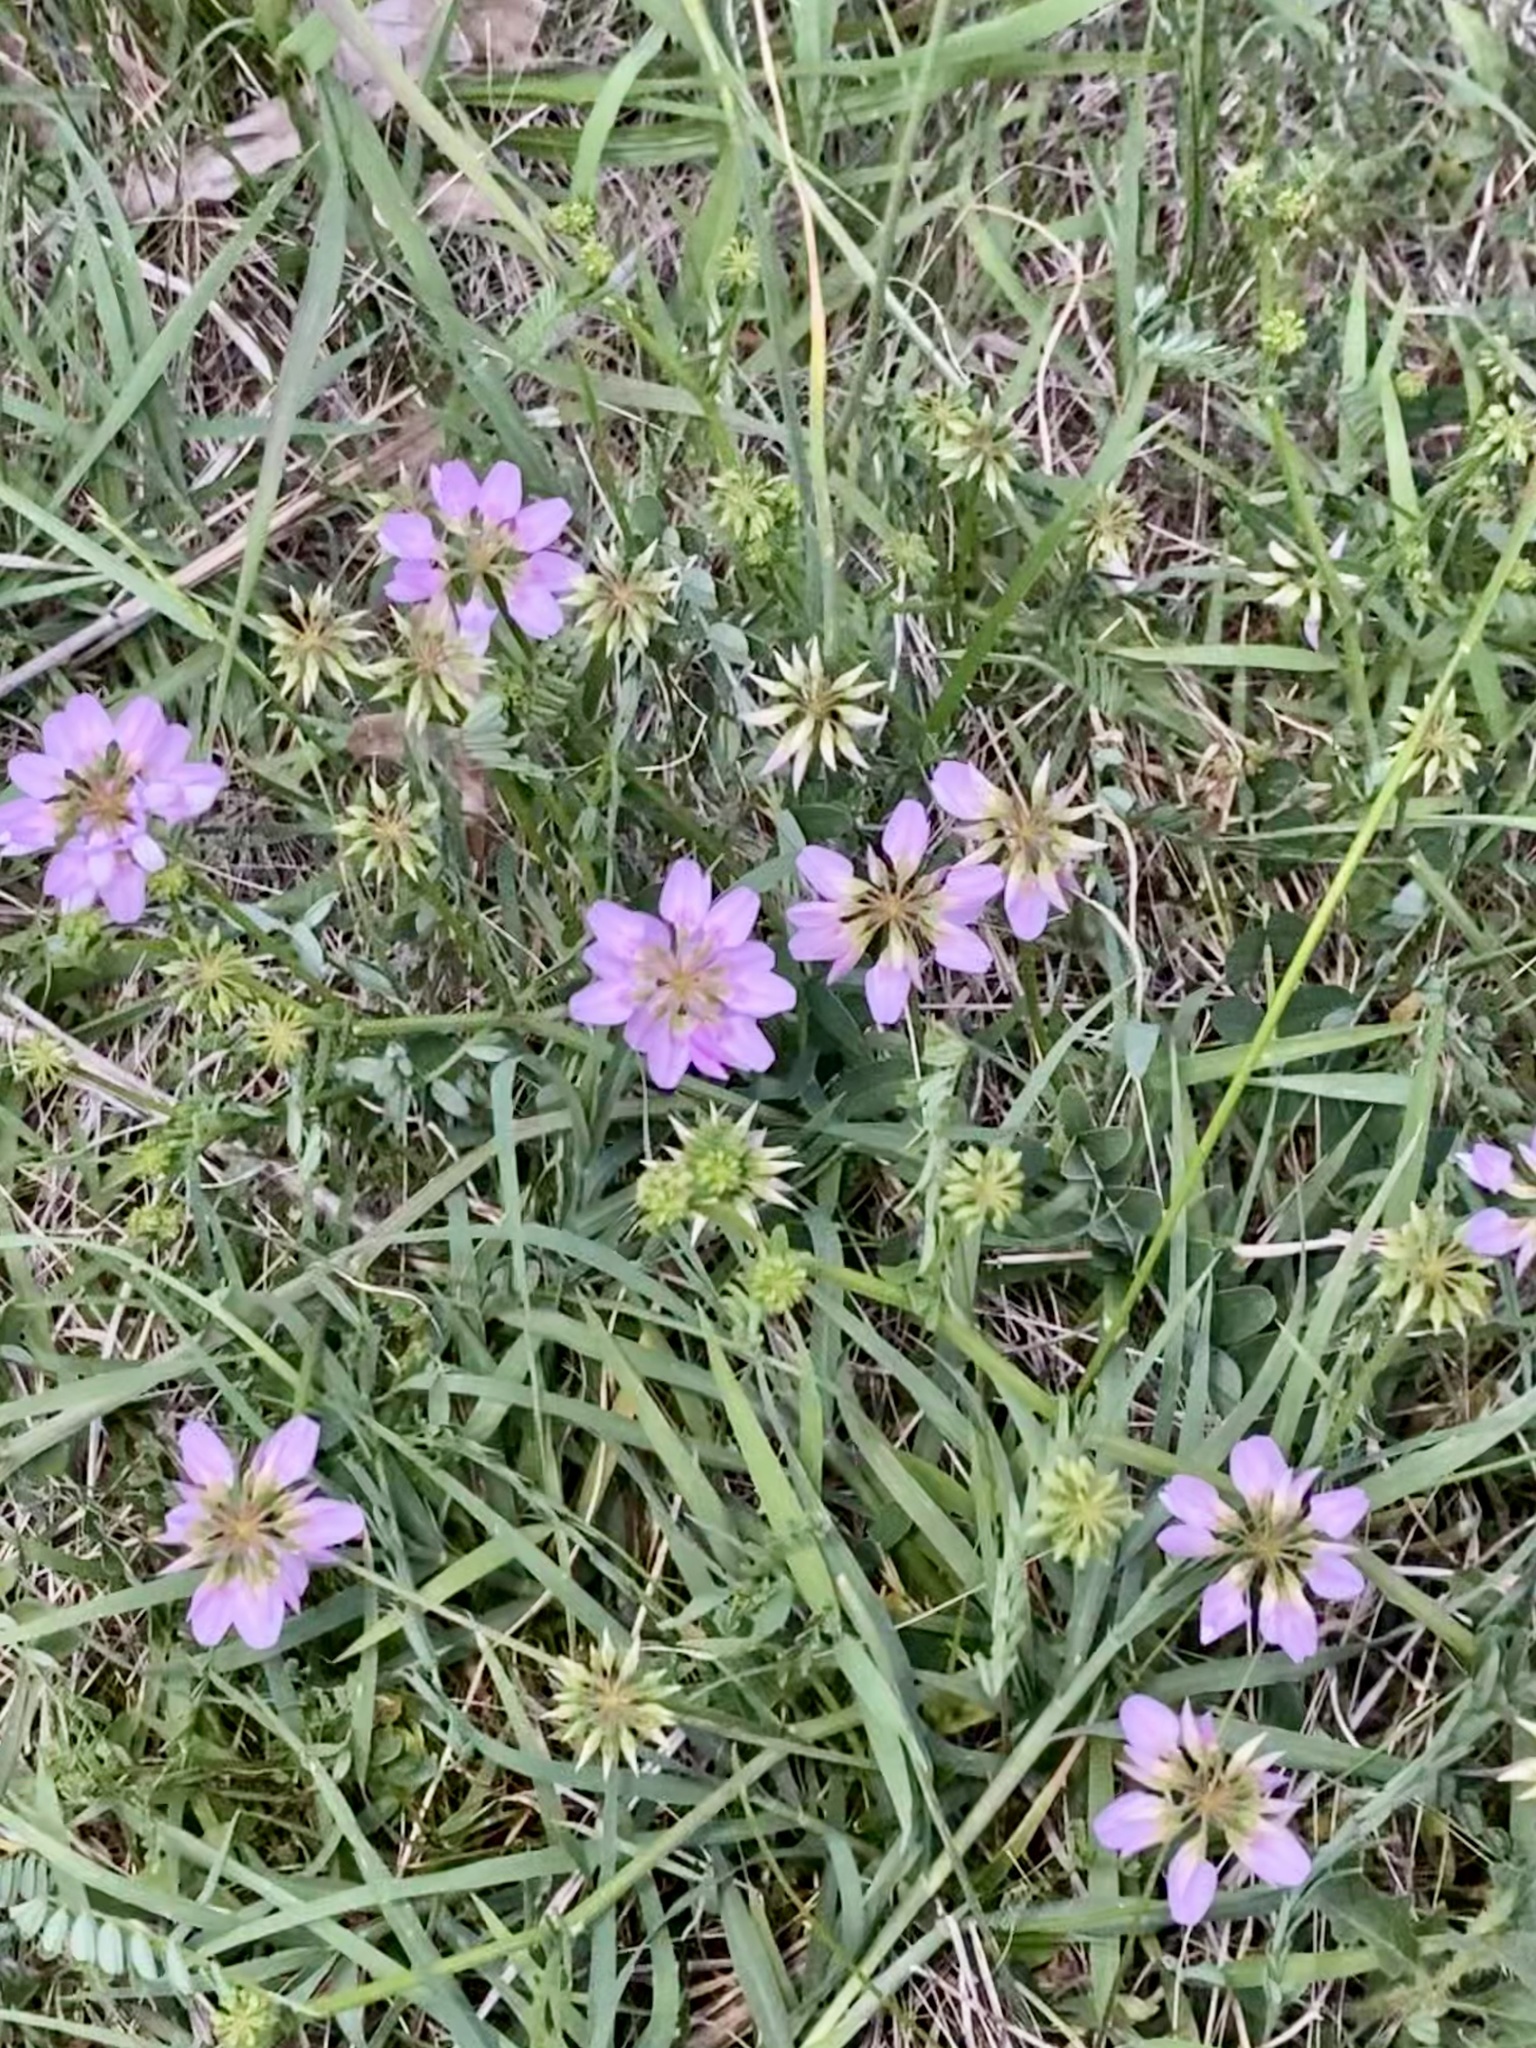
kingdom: Plantae
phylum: Tracheophyta
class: Magnoliopsida
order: Fabales
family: Fabaceae
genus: Coronilla
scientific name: Coronilla varia
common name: Crownvetch
